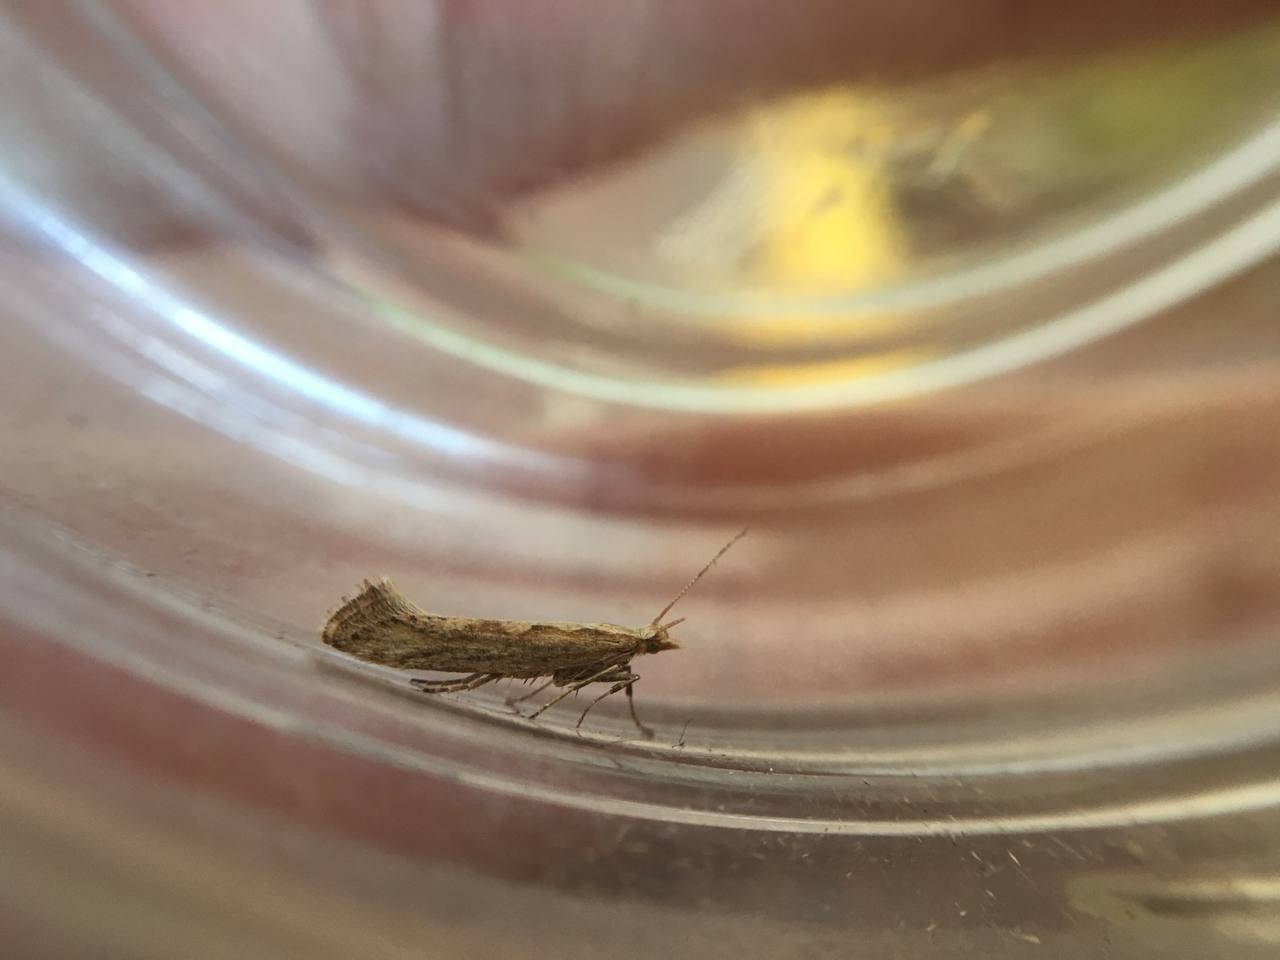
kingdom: Animalia
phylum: Arthropoda
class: Insecta
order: Lepidoptera
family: Plutellidae
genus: Plutella
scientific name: Plutella xylostella
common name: Diamond-back moth
